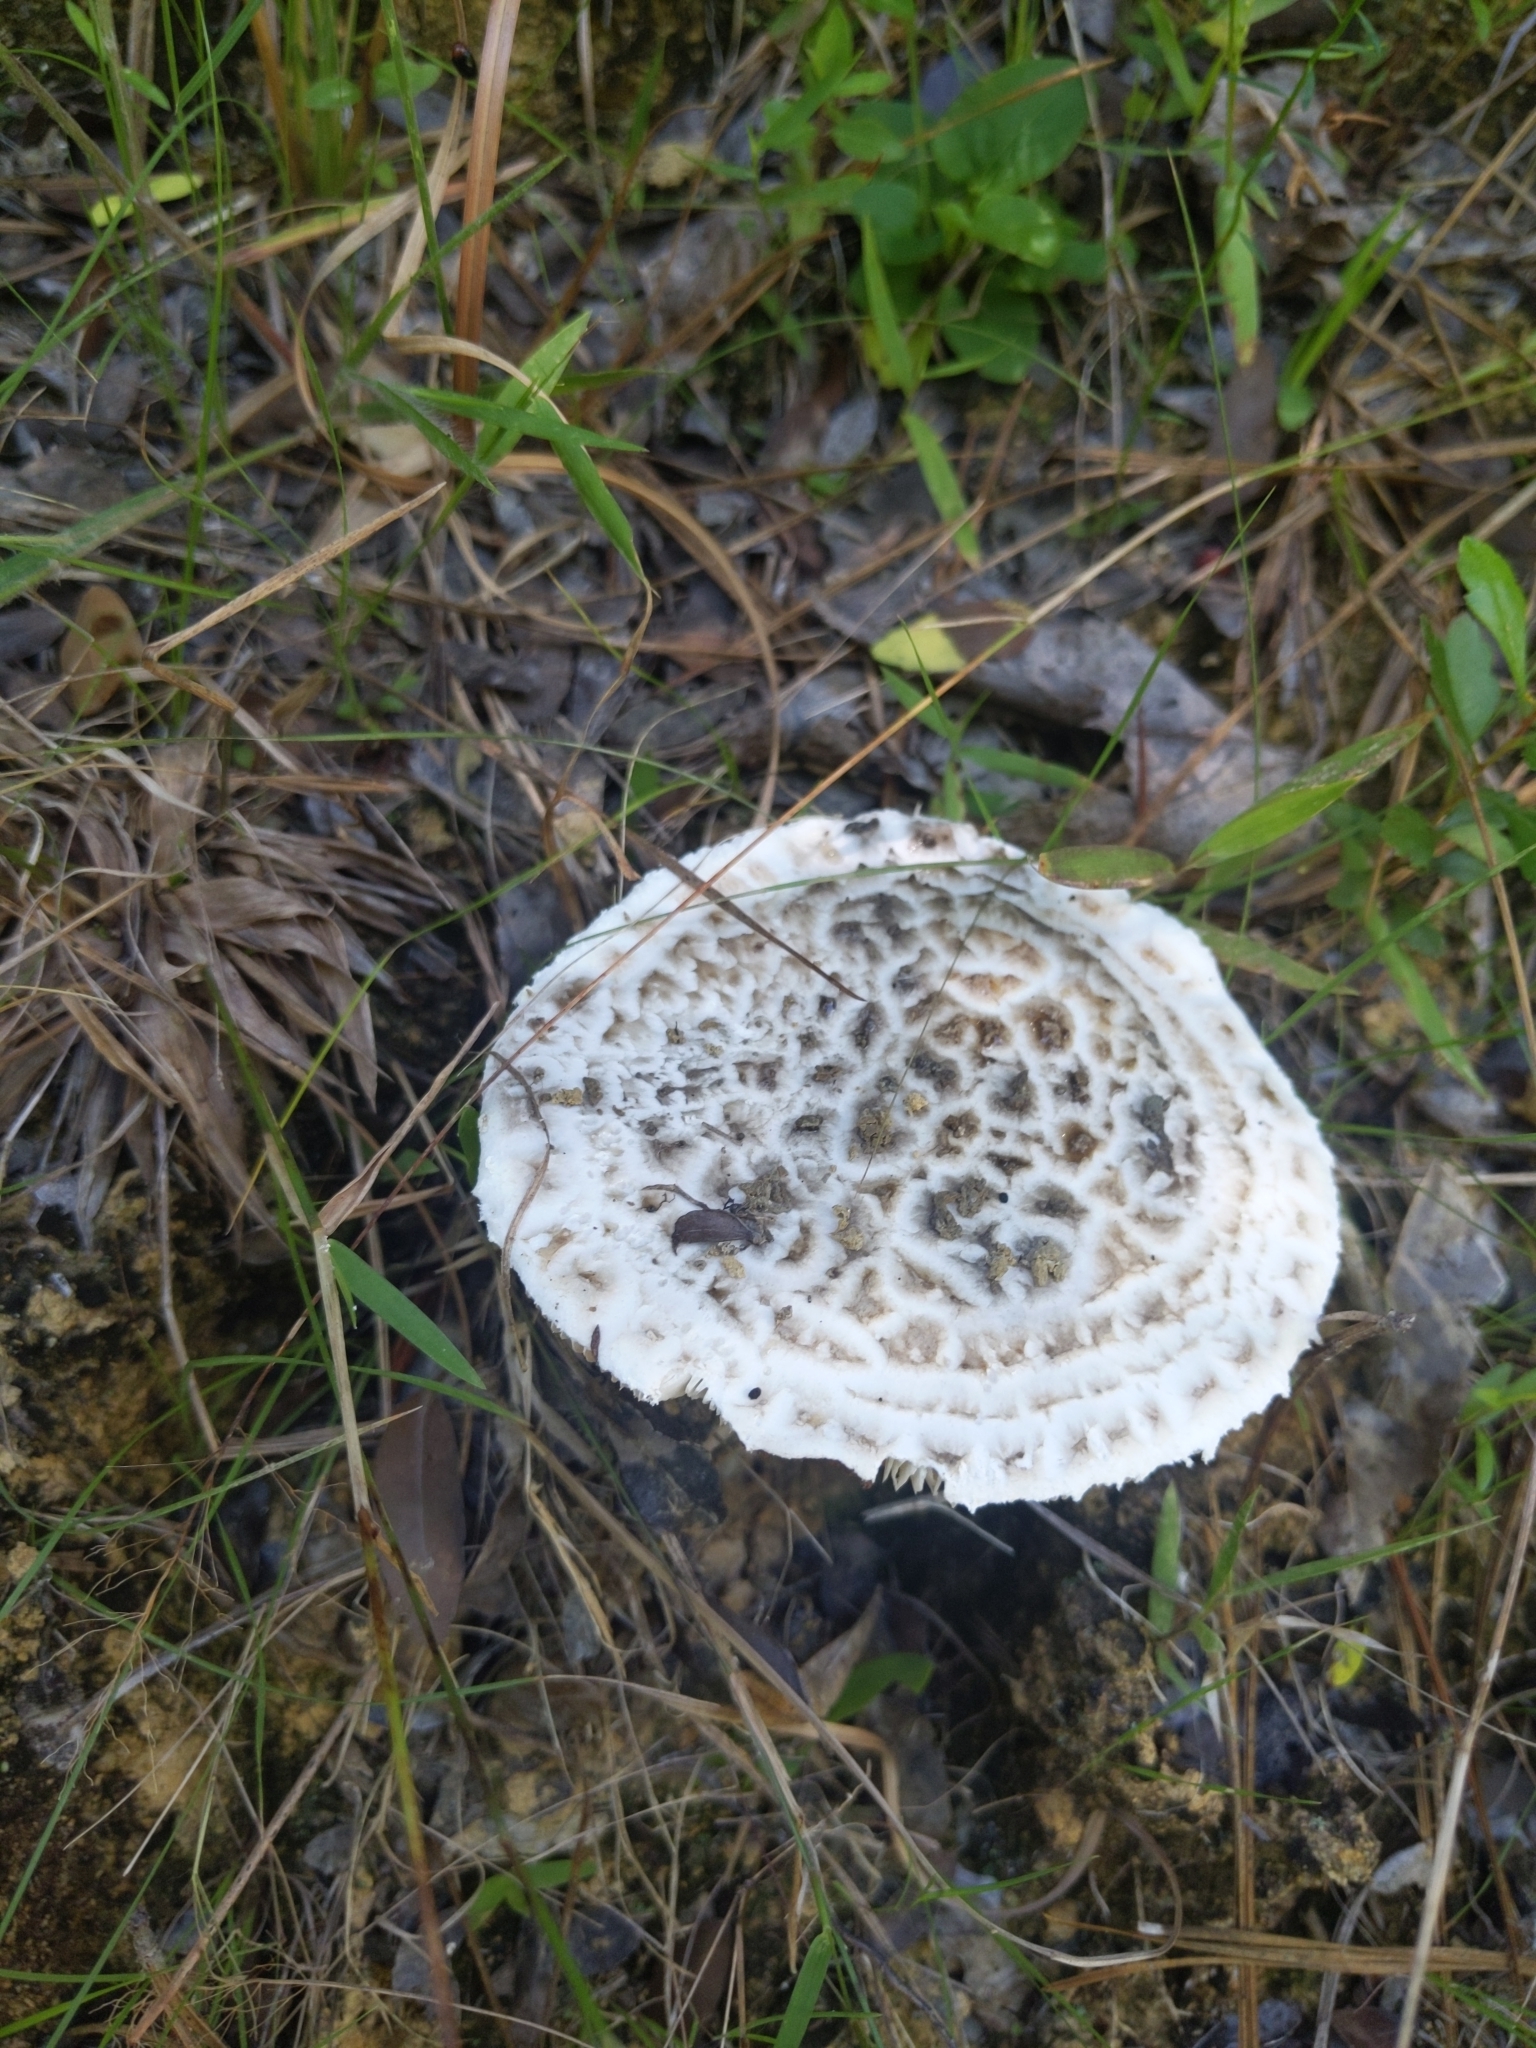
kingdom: Fungi
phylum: Basidiomycota
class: Agaricomycetes
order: Agaricales
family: Amanitaceae
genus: Aspidella
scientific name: Aspidella hesleri
